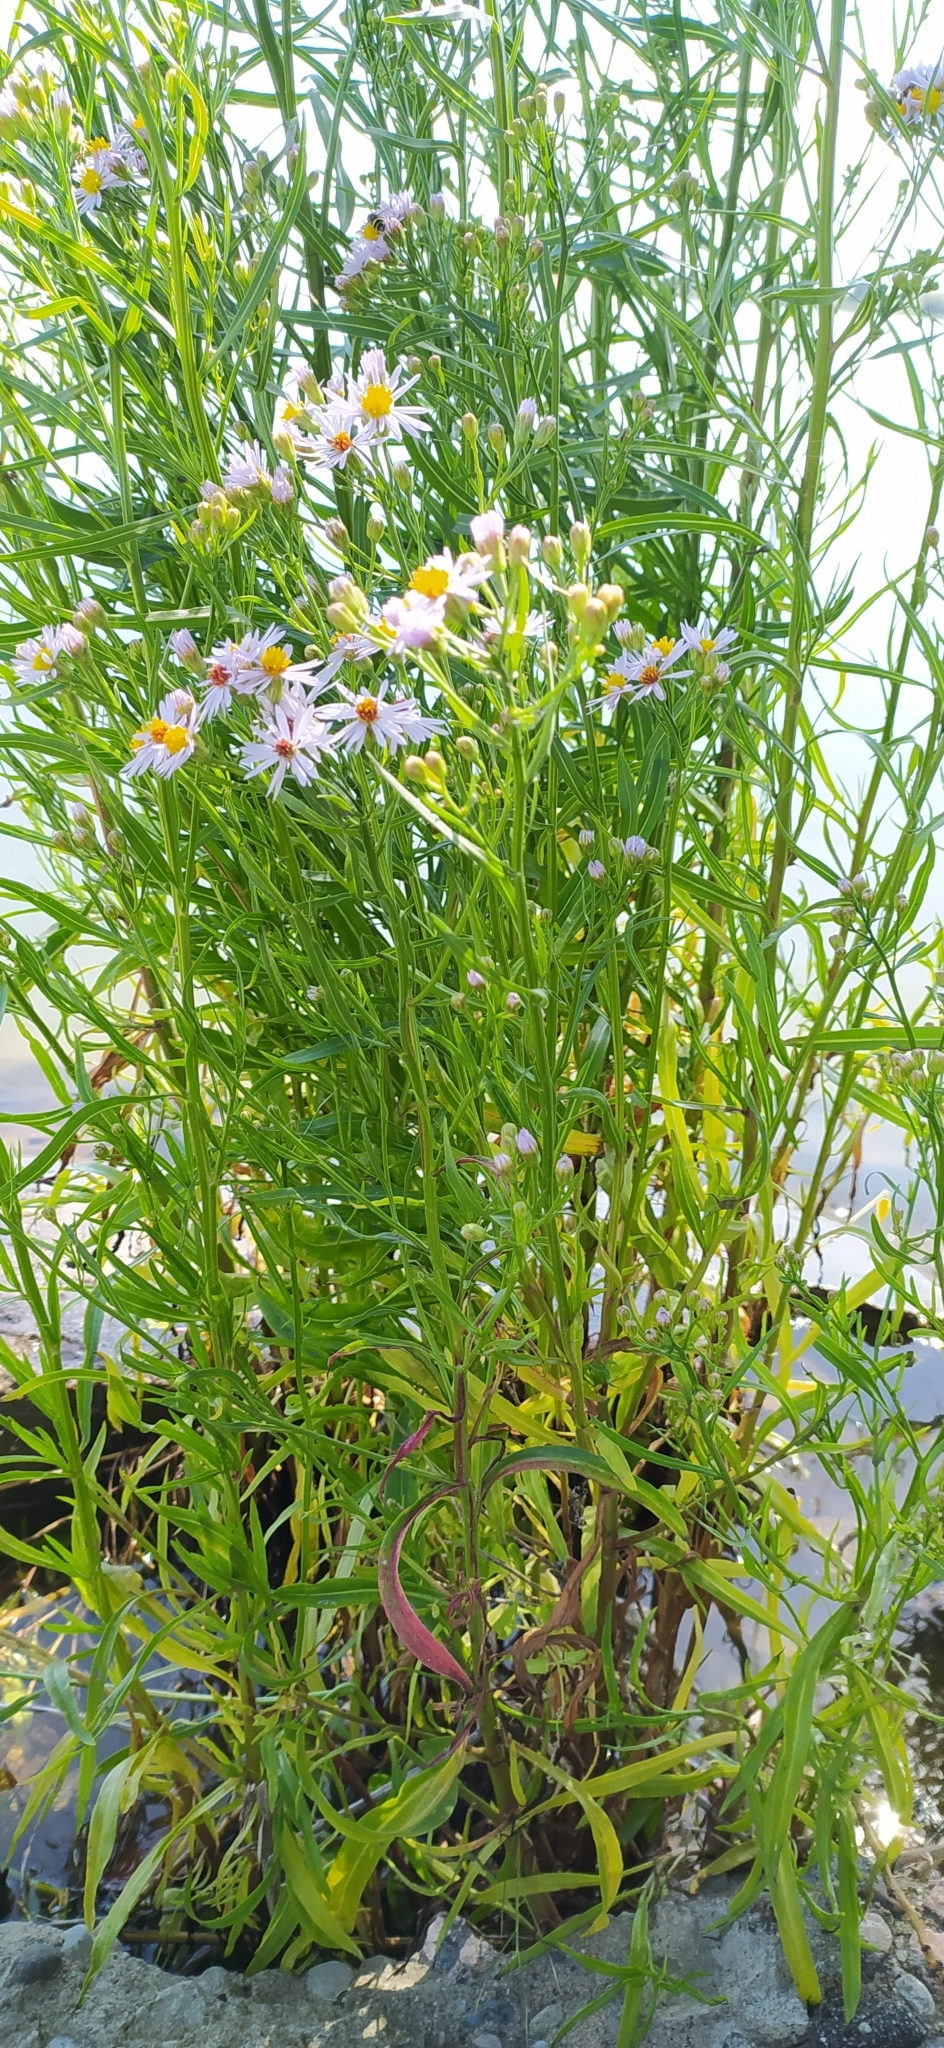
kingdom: Plantae
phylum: Tracheophyta
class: Magnoliopsida
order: Asterales
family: Asteraceae
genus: Tripolium
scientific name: Tripolium pannonicum
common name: Sea aster
